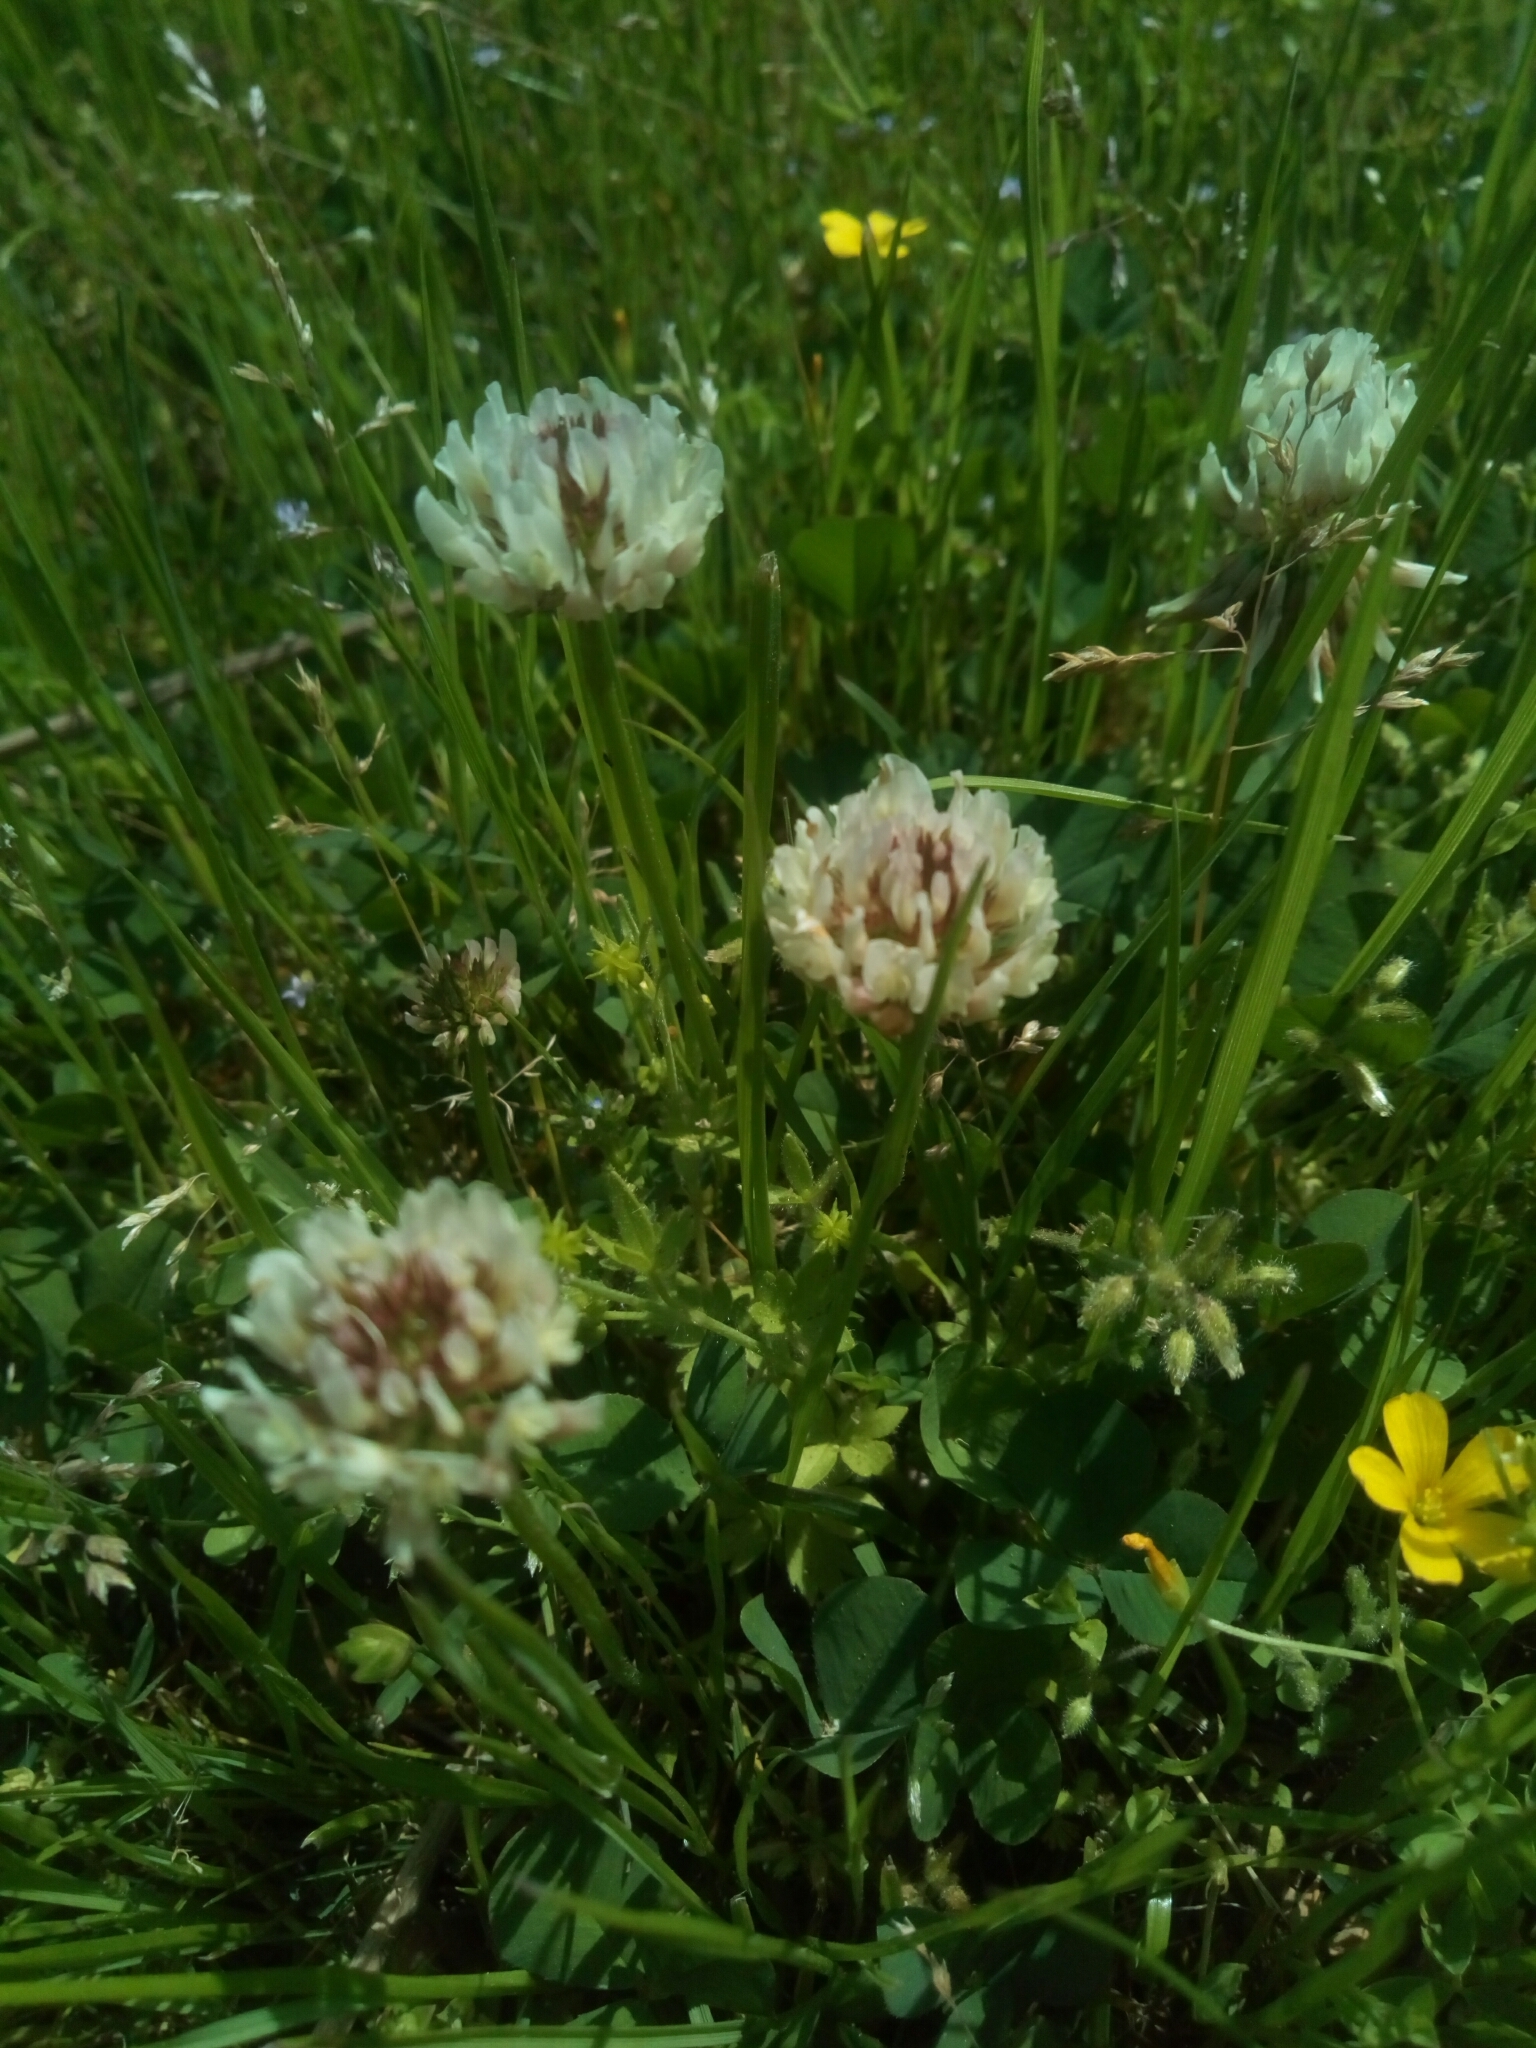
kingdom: Plantae
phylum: Tracheophyta
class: Magnoliopsida
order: Fabales
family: Fabaceae
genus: Trifolium
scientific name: Trifolium repens
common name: White clover
